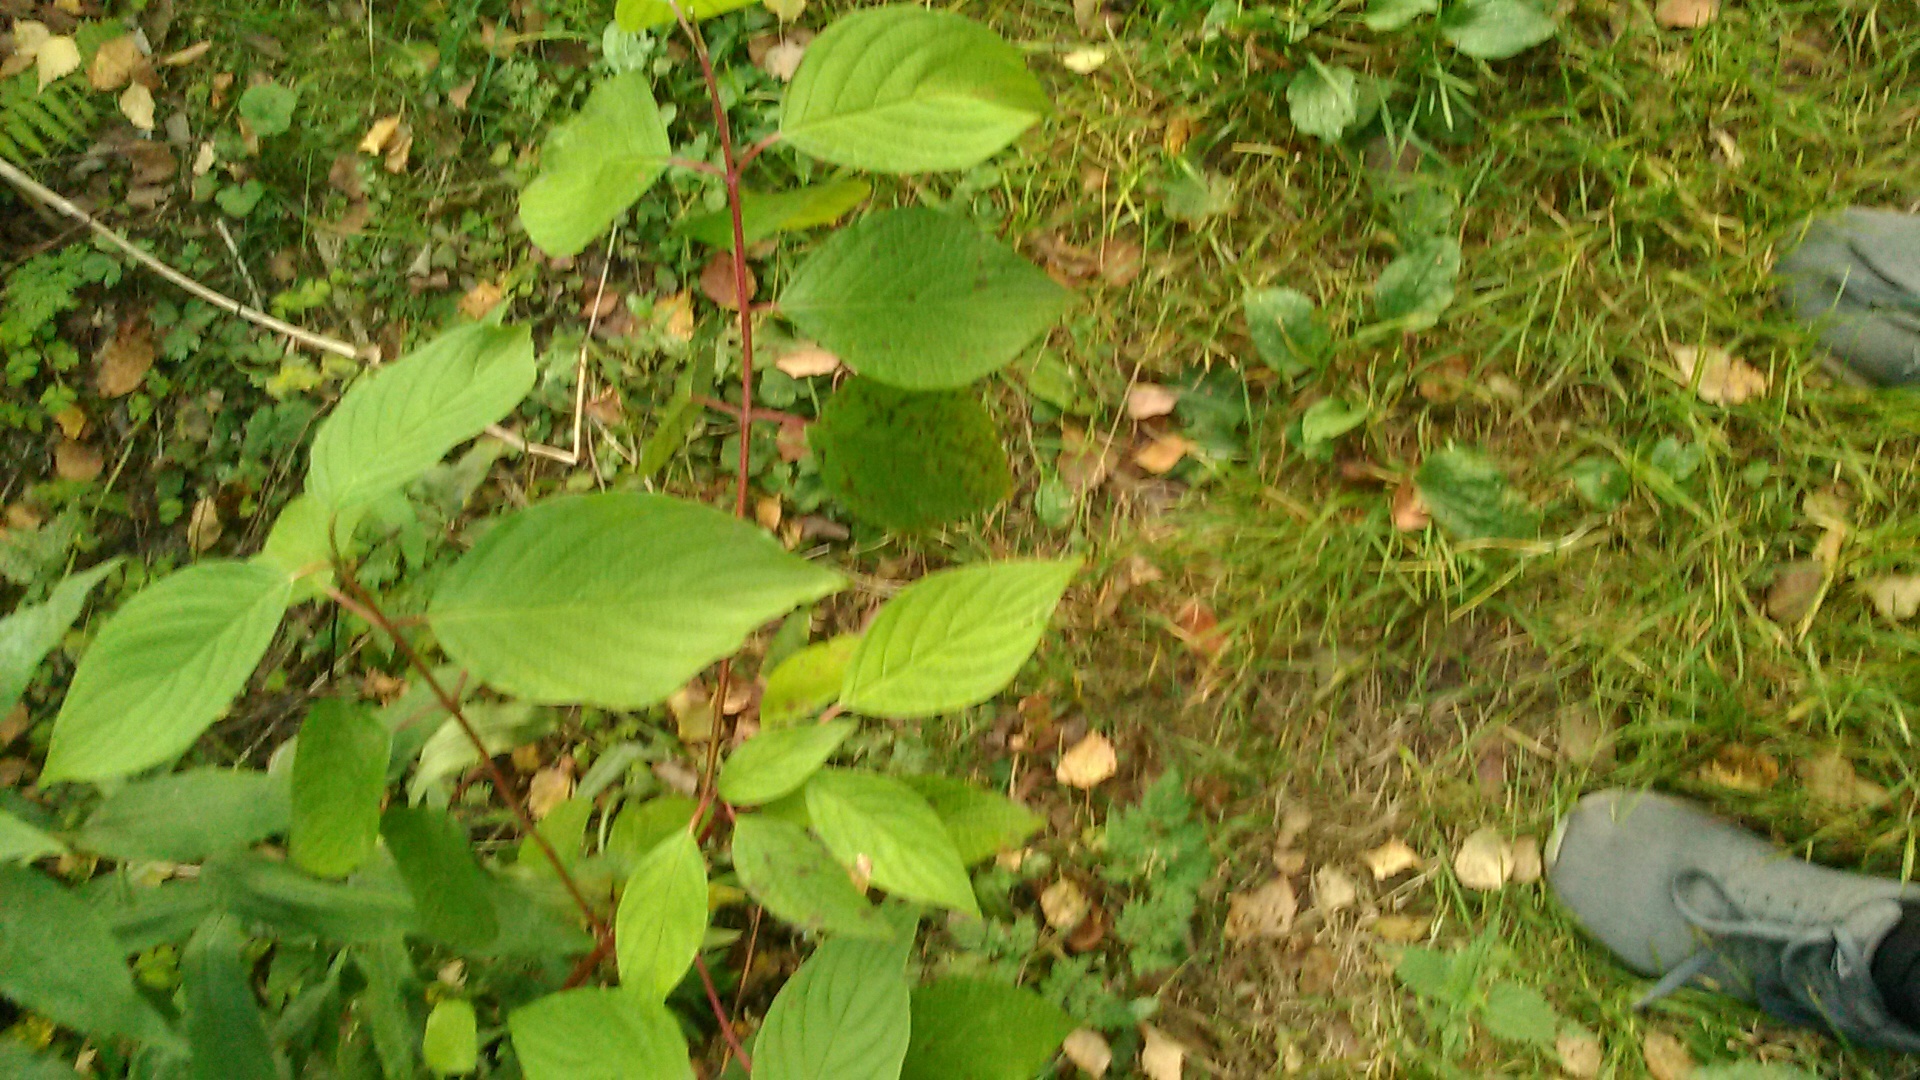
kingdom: Plantae
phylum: Tracheophyta
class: Magnoliopsida
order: Cornales
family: Cornaceae
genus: Cornus
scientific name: Cornus sericea
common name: Red-osier dogwood
